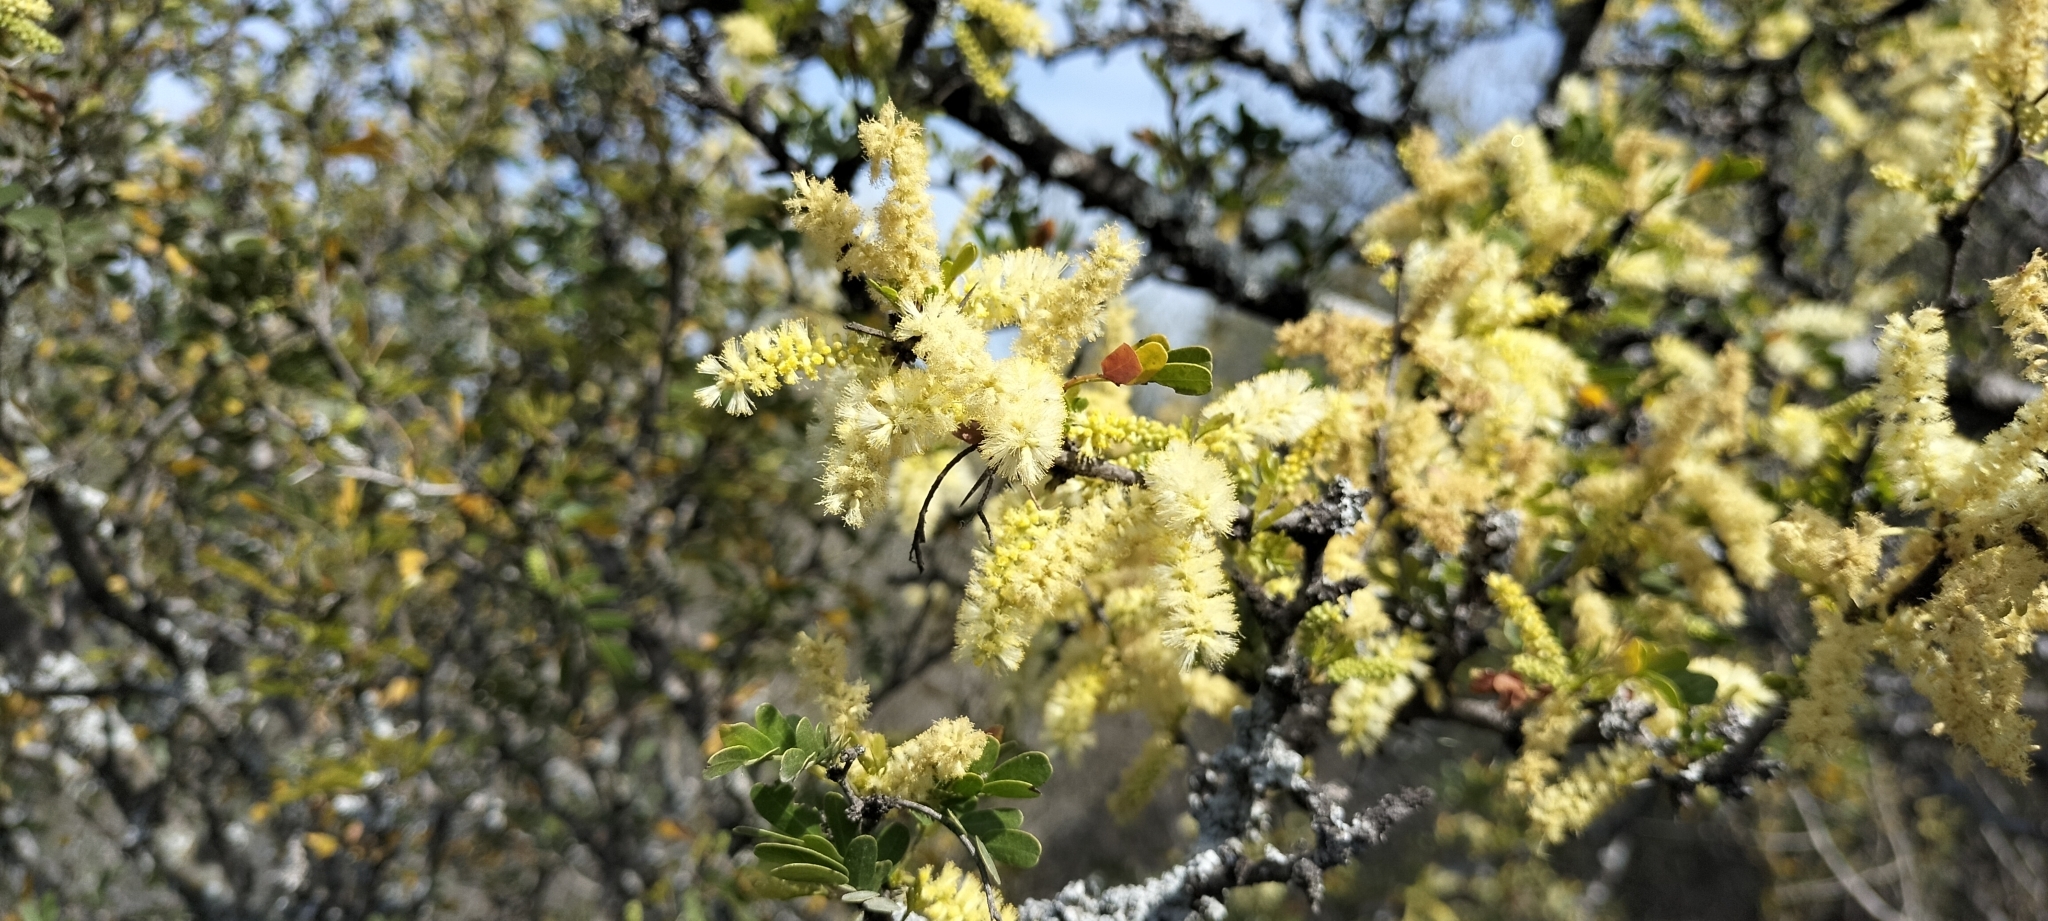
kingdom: Plantae
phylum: Tracheophyta
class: Magnoliopsida
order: Fabales
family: Fabaceae
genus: Vachellia
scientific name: Vachellia rigidula
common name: Blackbrush
